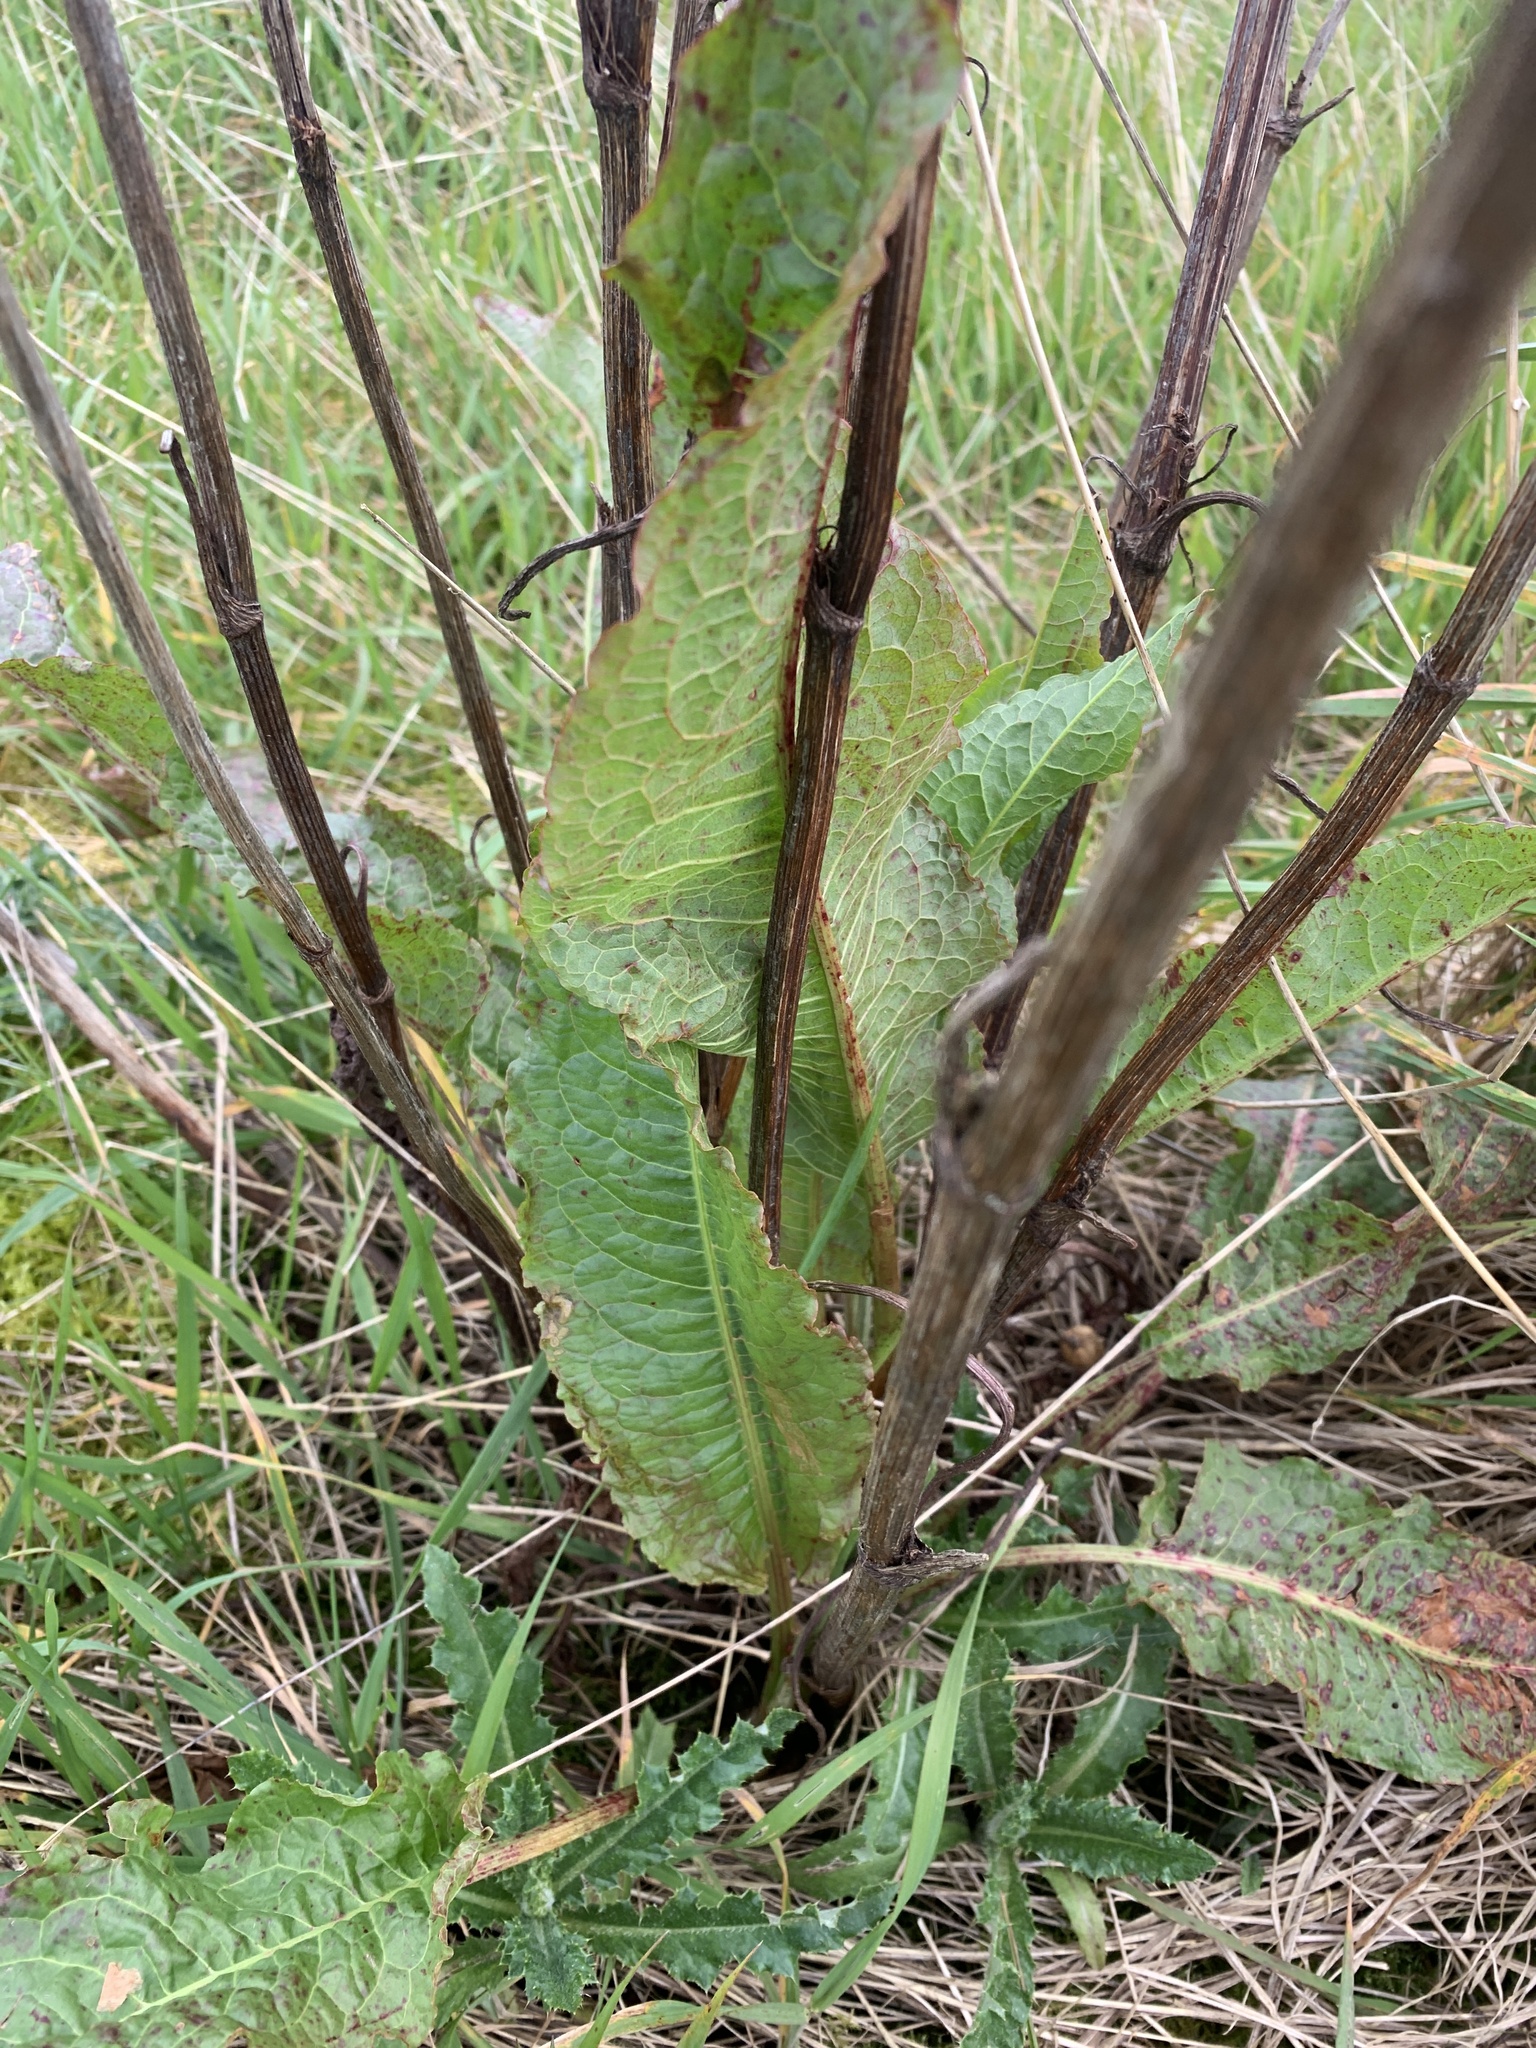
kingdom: Plantae
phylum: Tracheophyta
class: Magnoliopsida
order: Caryophyllales
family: Polygonaceae
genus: Rumex
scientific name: Rumex obtusifolius
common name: Bitter dock
